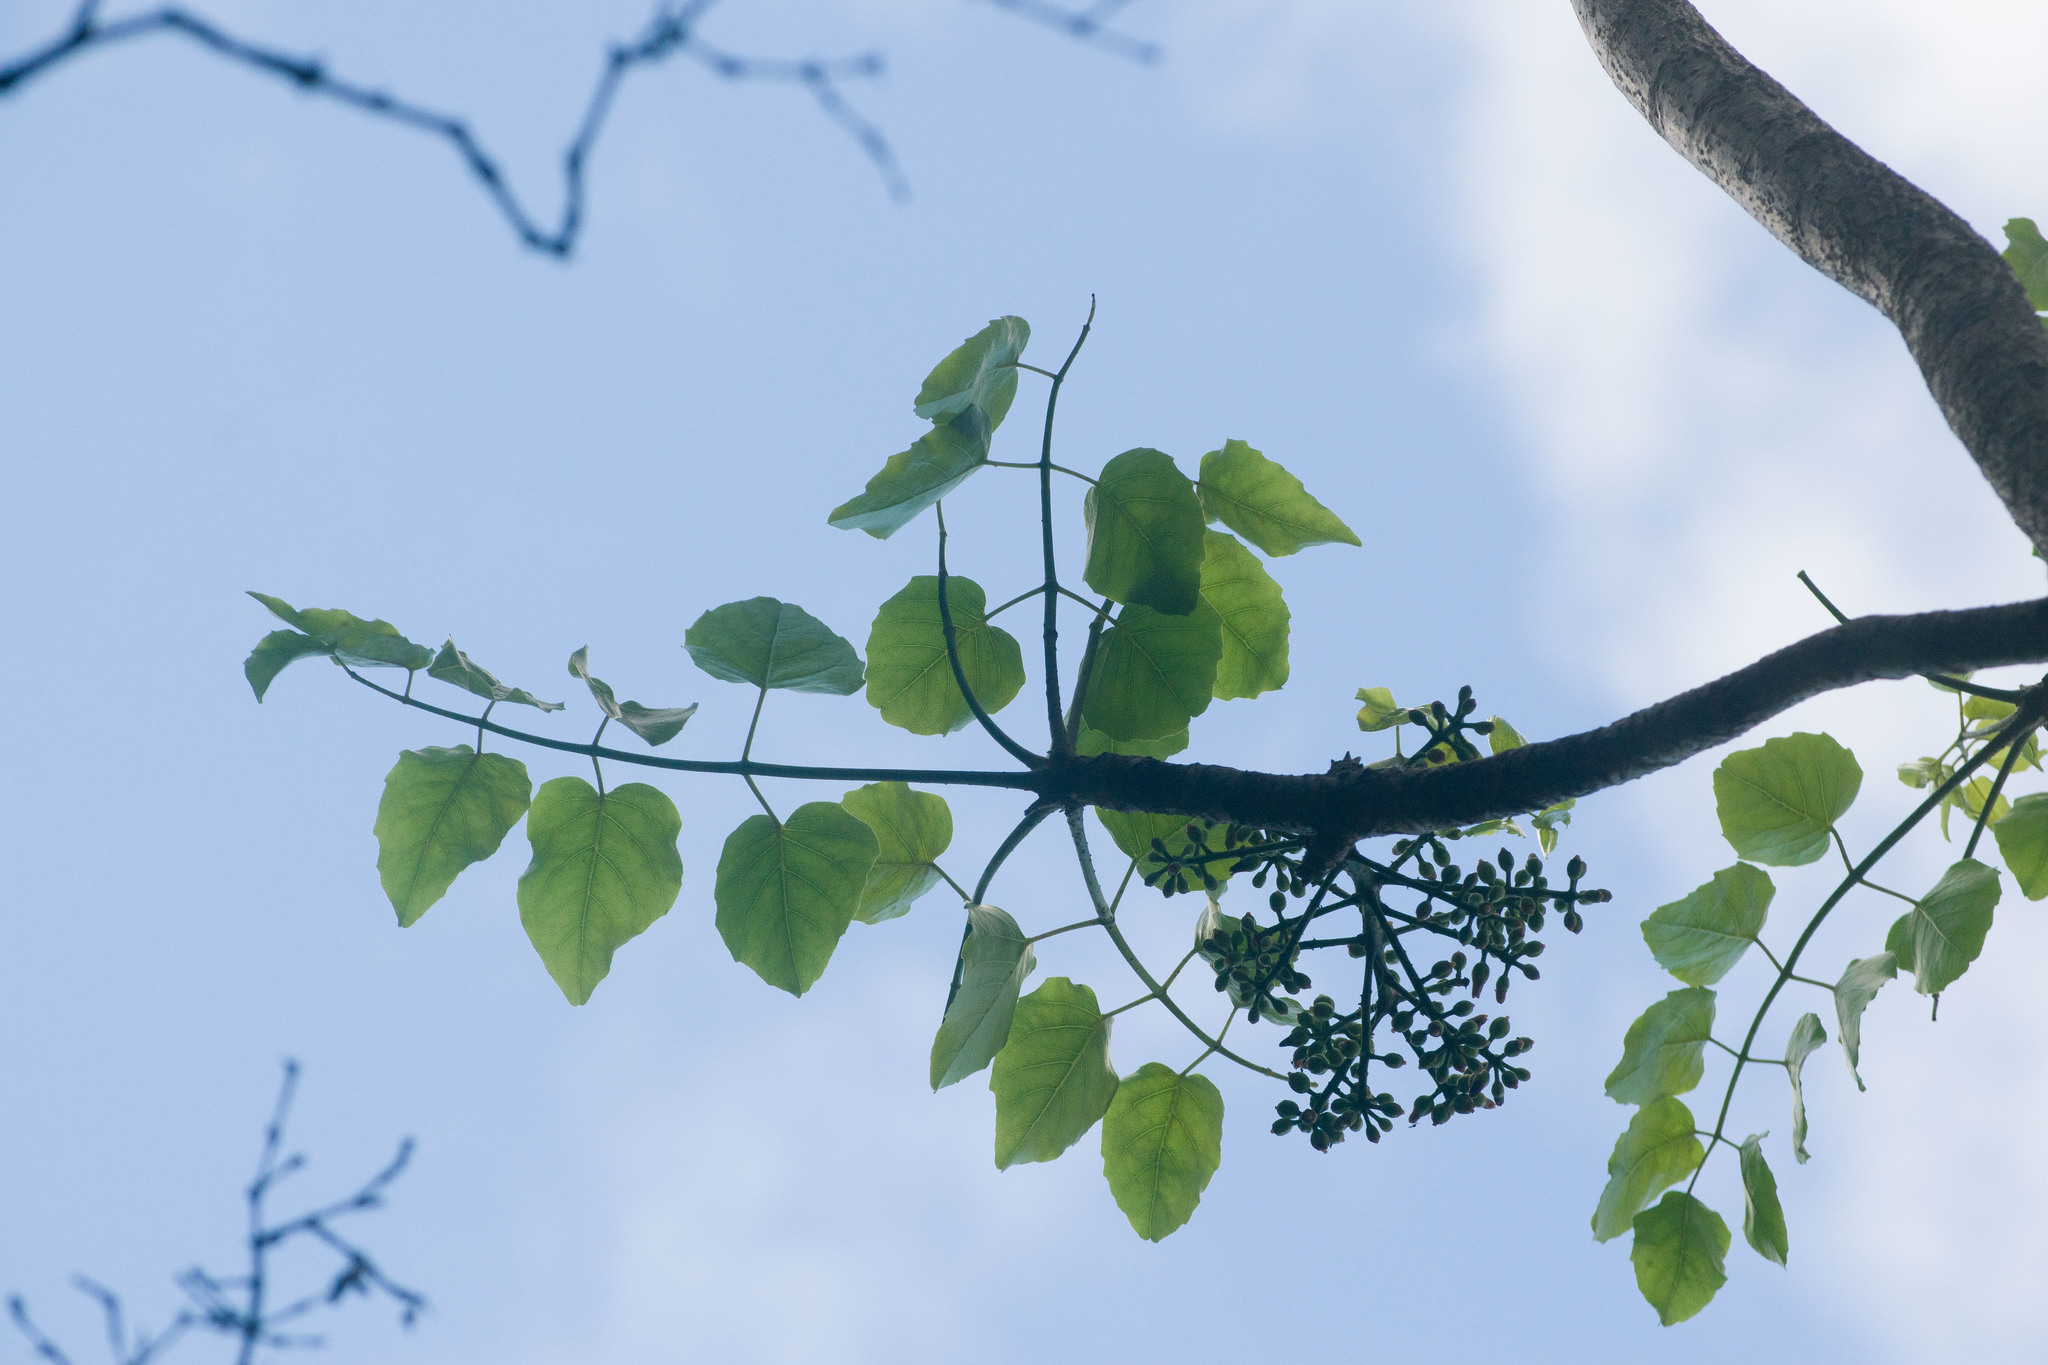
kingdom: Plantae
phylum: Tracheophyta
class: Magnoliopsida
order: Apiales
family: Araliaceae
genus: Polyscias
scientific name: Polyscias sandwicensis
